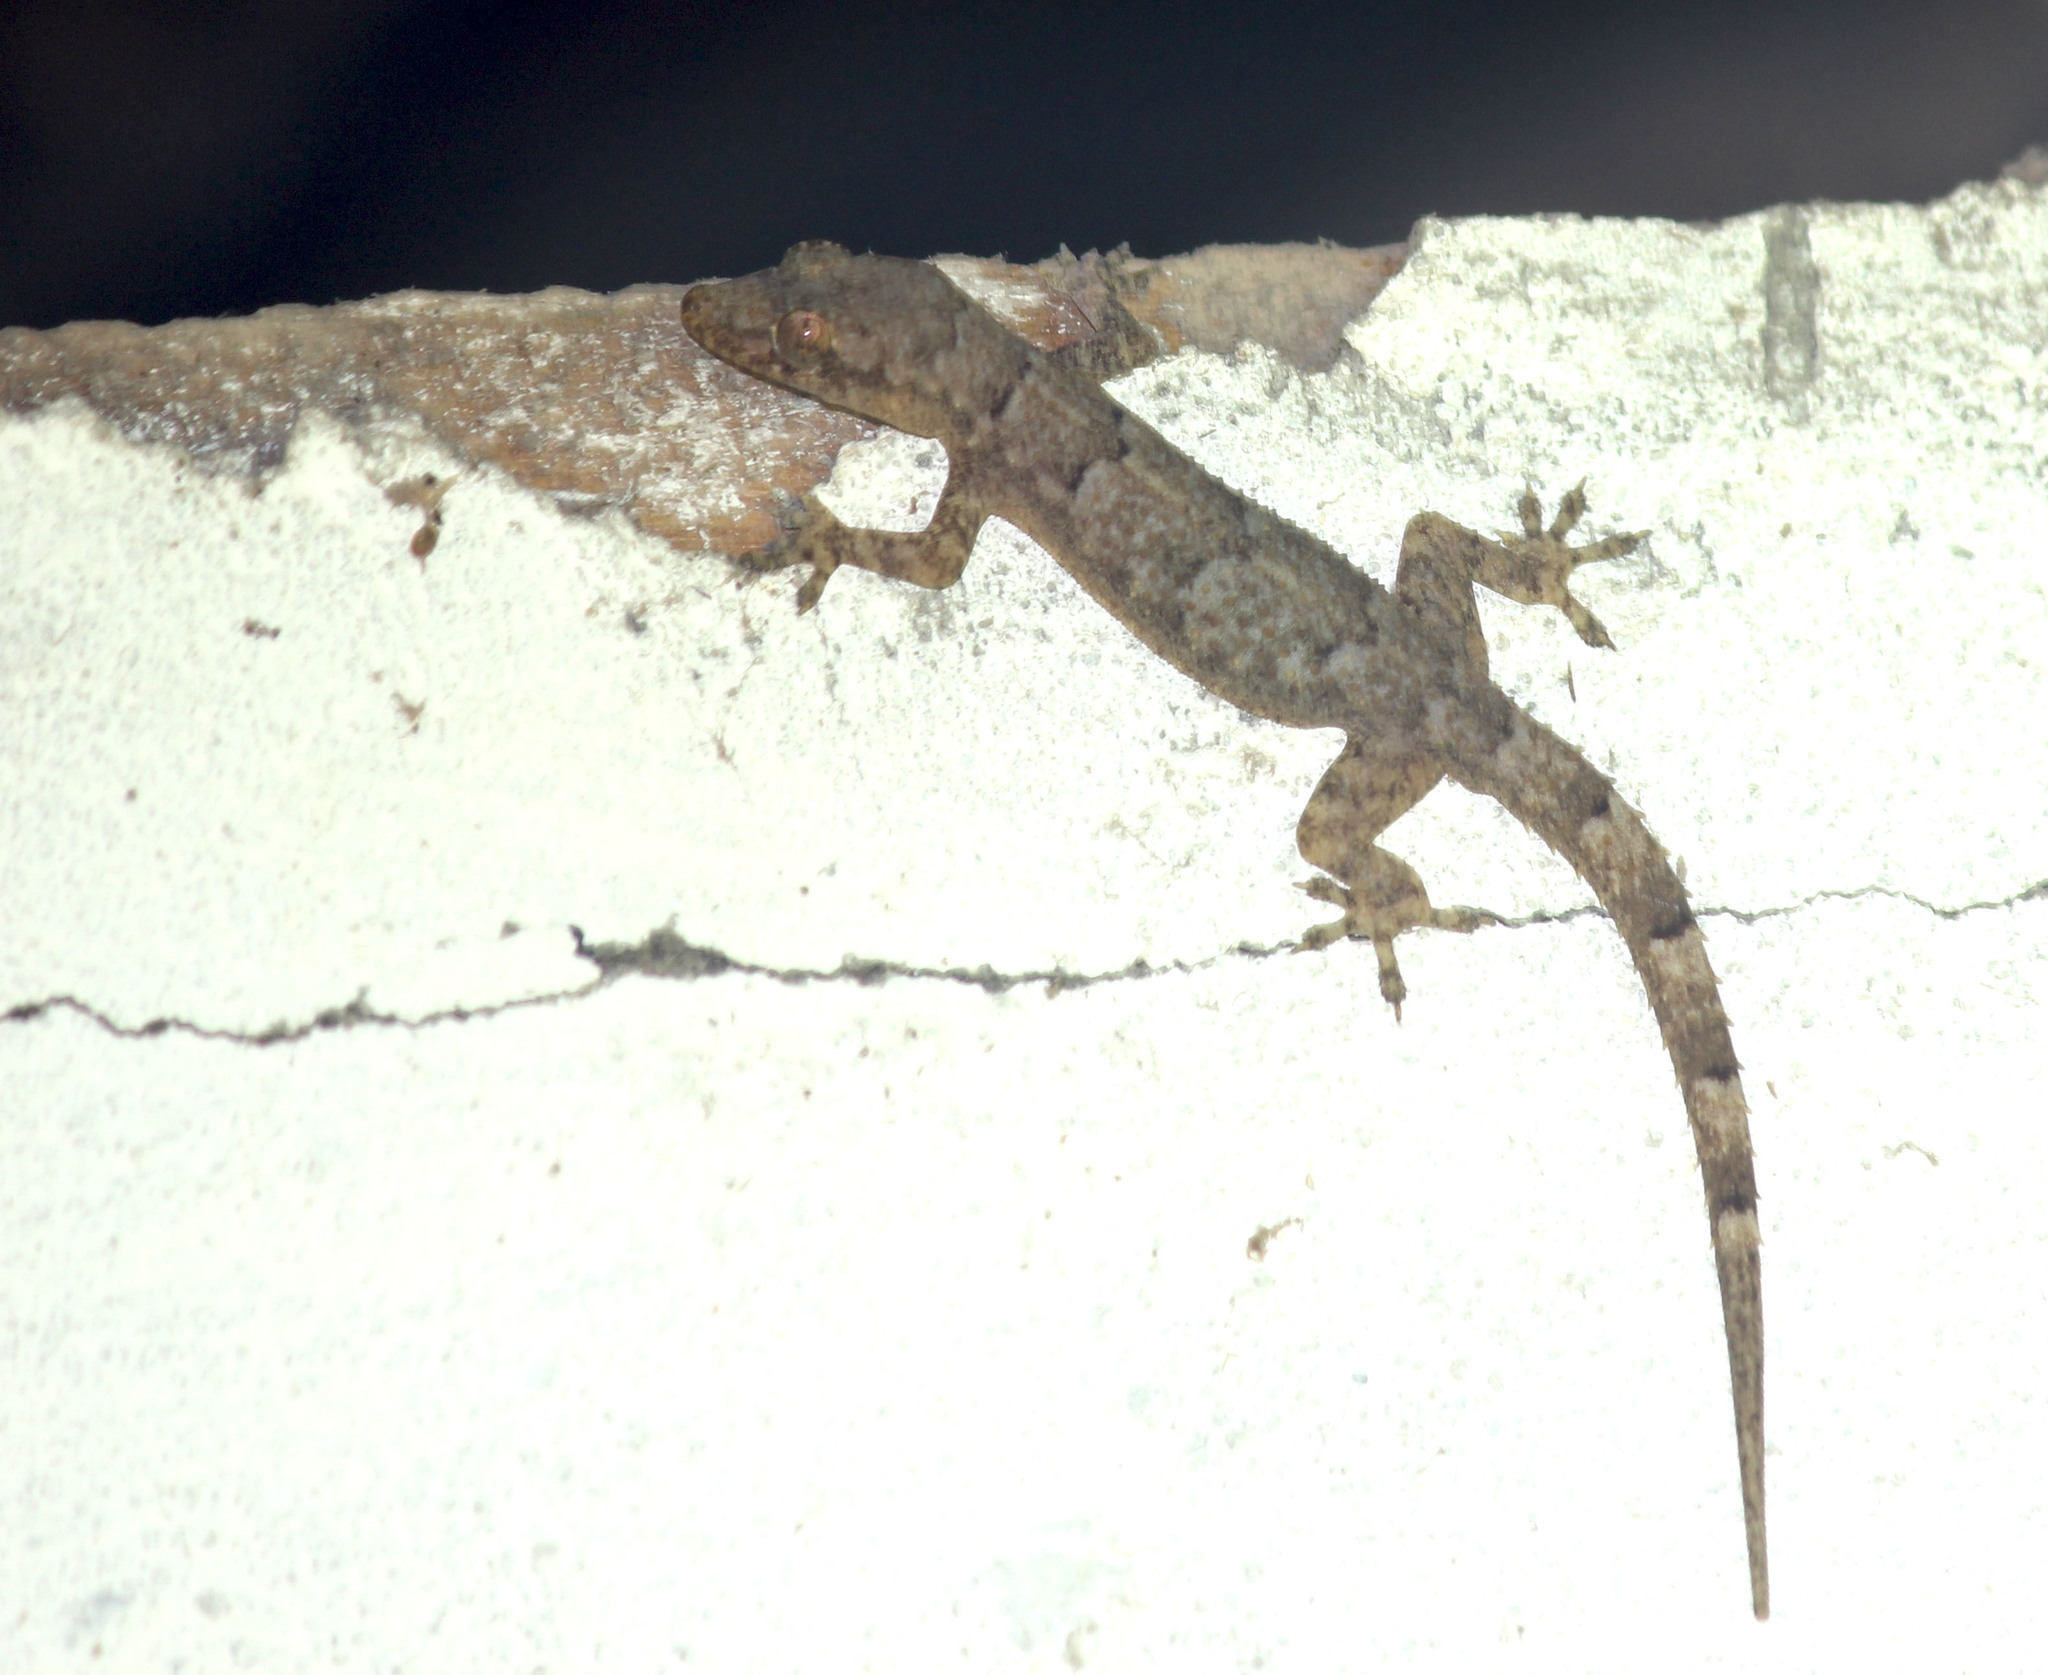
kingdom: Animalia
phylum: Chordata
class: Squamata
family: Gekkonidae
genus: Hemidactylus
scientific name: Hemidactylus mabouia
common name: House gecko
